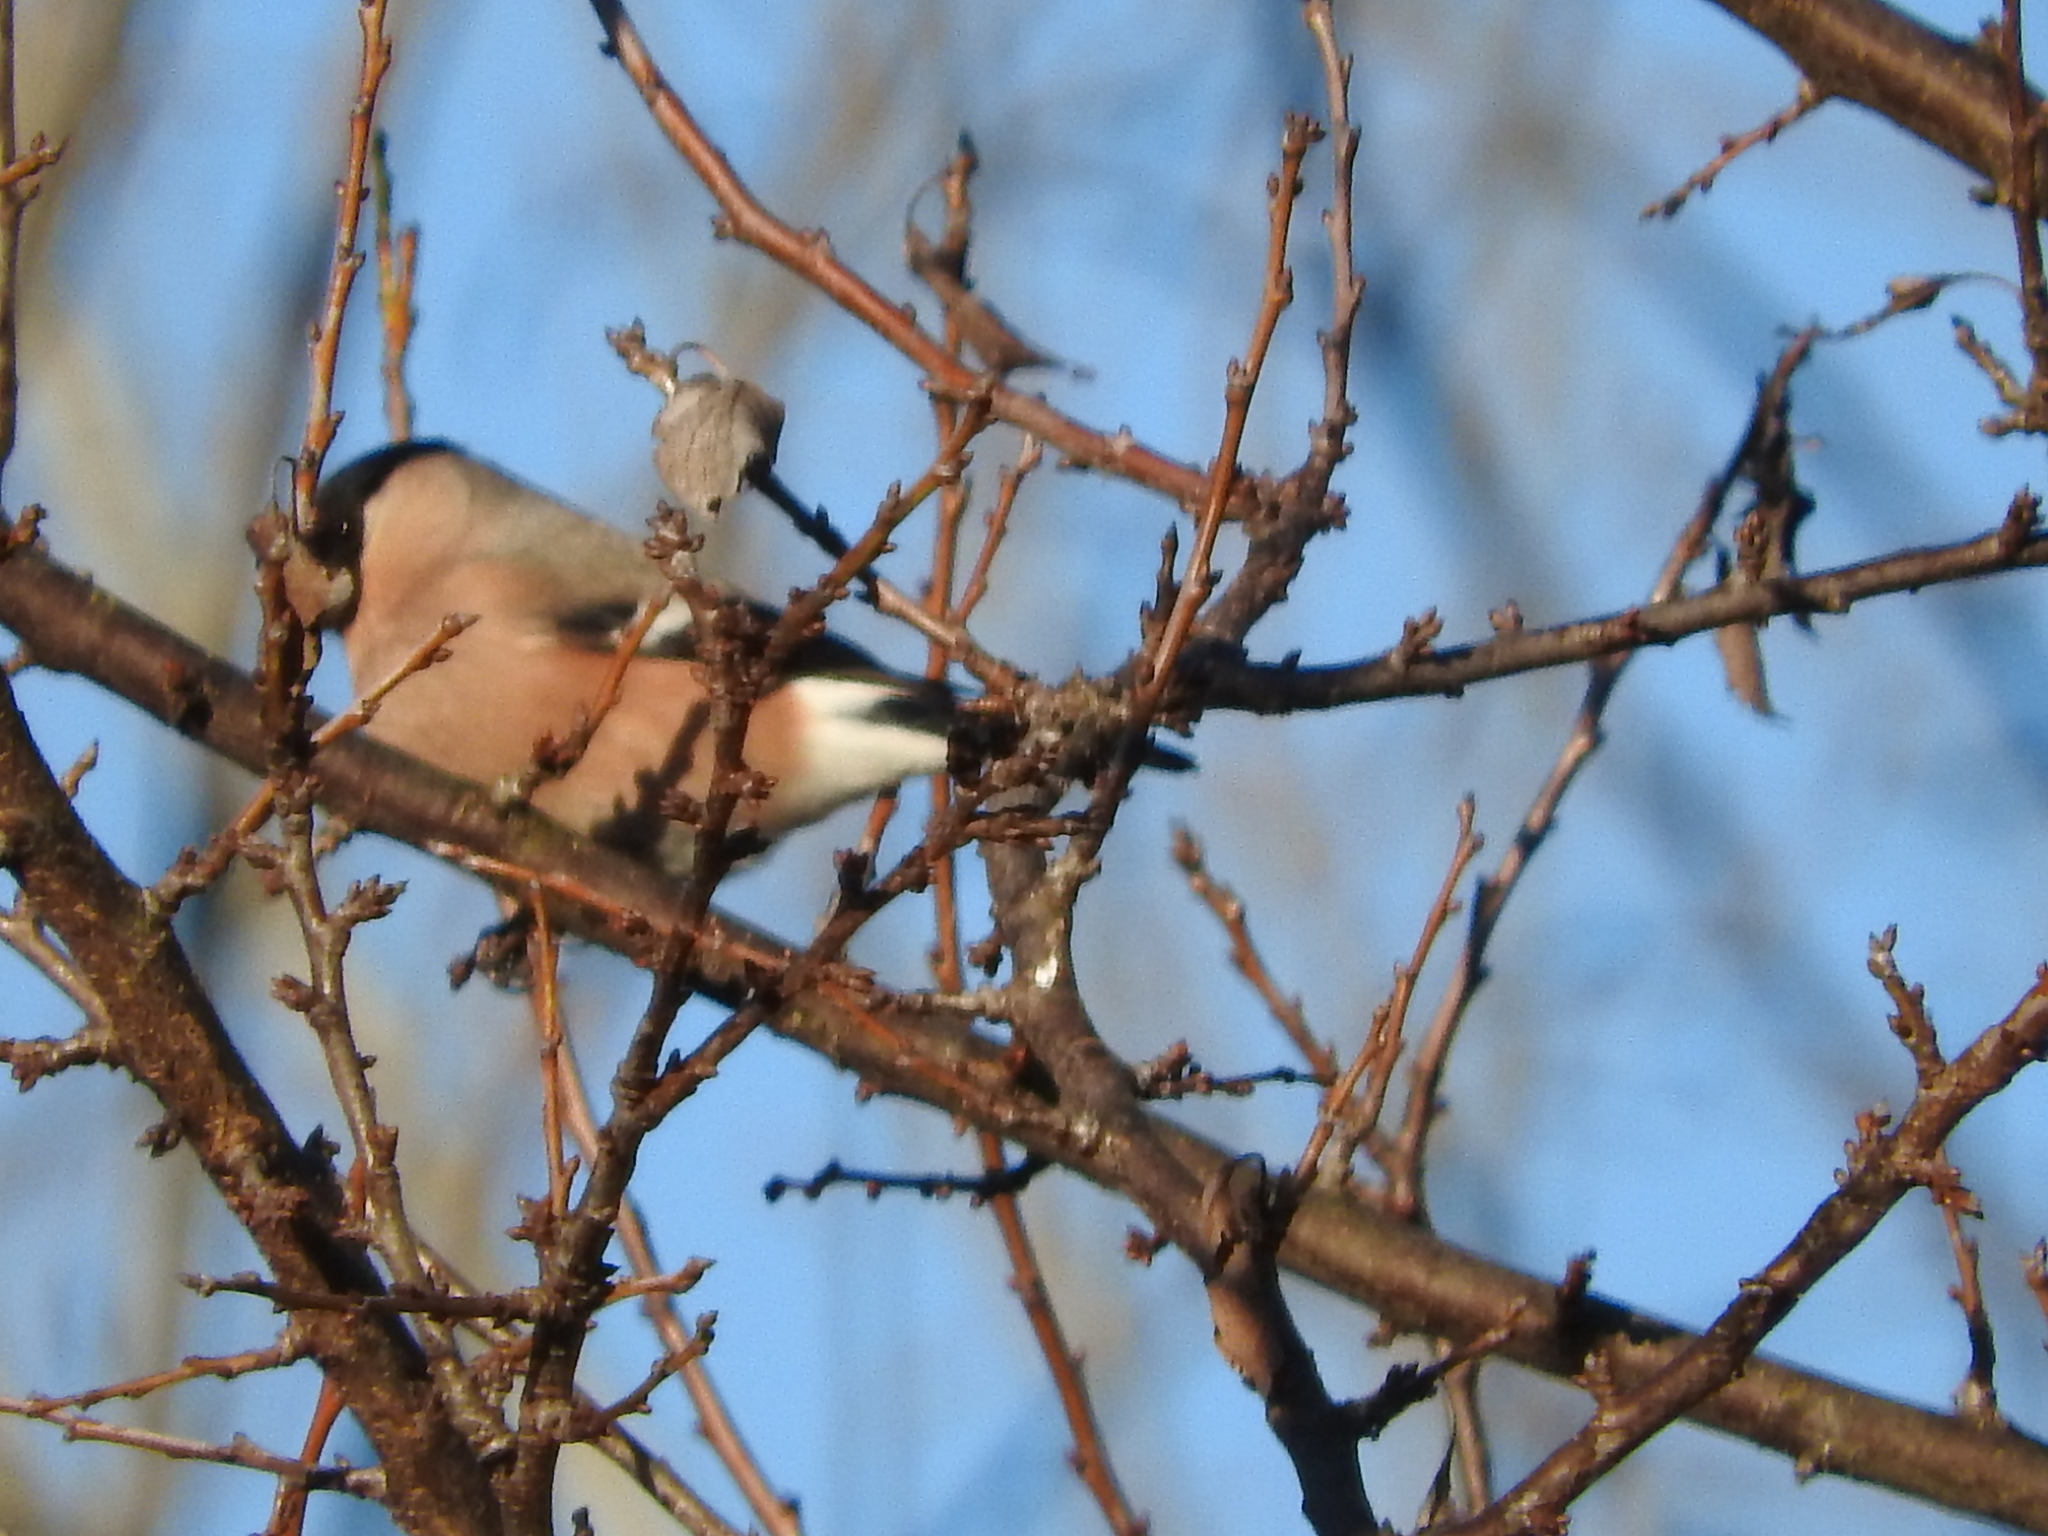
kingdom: Animalia
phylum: Chordata
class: Aves
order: Passeriformes
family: Fringillidae
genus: Pyrrhula
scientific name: Pyrrhula pyrrhula
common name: Eurasian bullfinch
